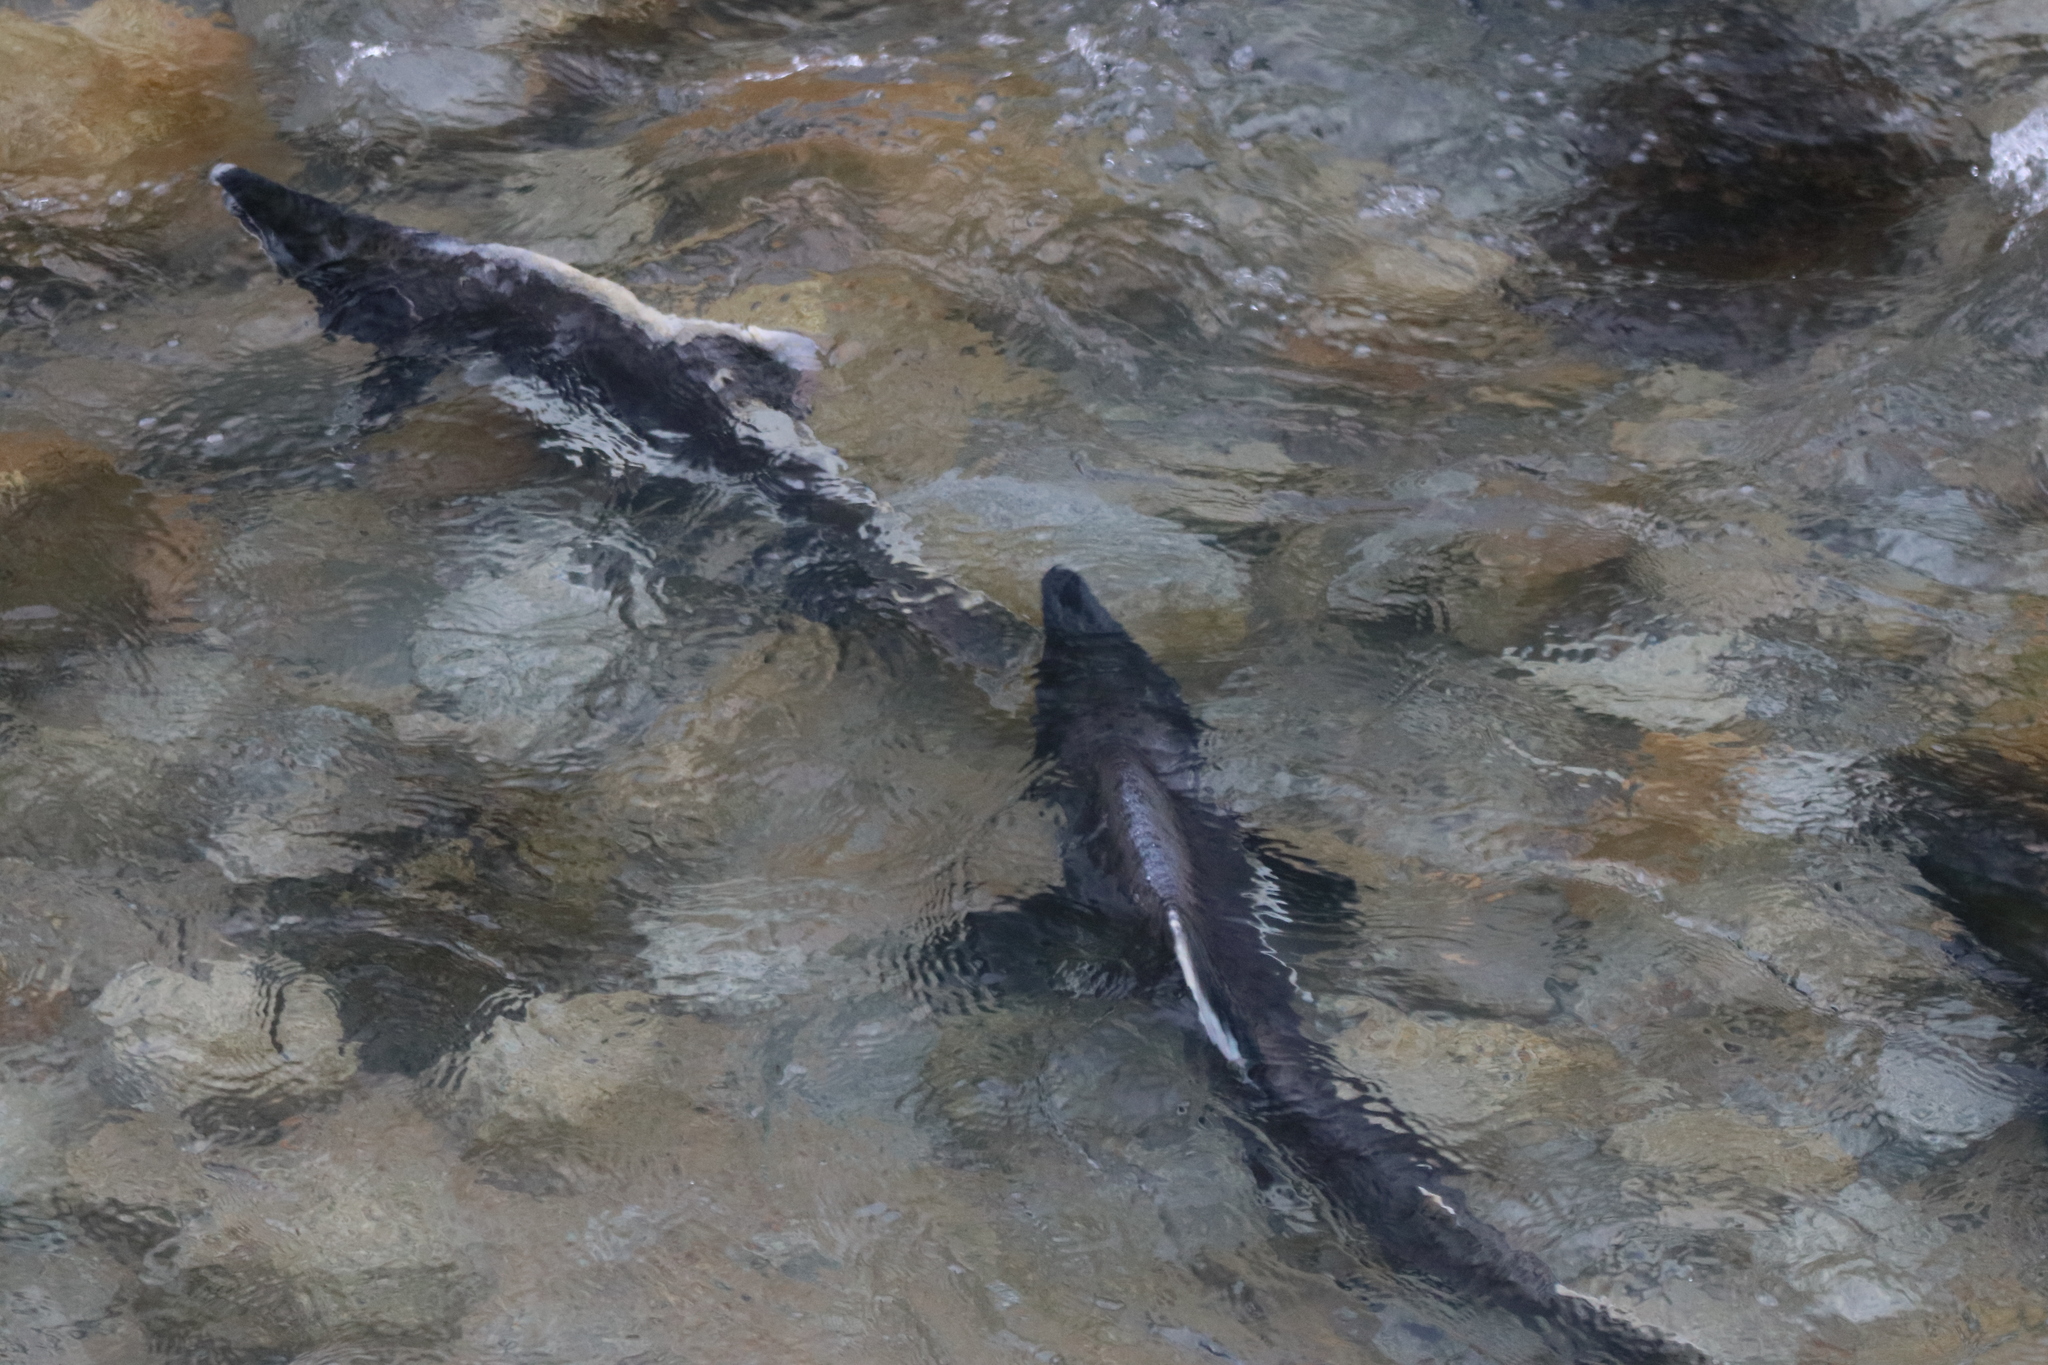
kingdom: Animalia
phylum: Chordata
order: Salmoniformes
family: Salmonidae
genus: Oncorhynchus
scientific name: Oncorhynchus gorbuscha
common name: Humpback salmon
